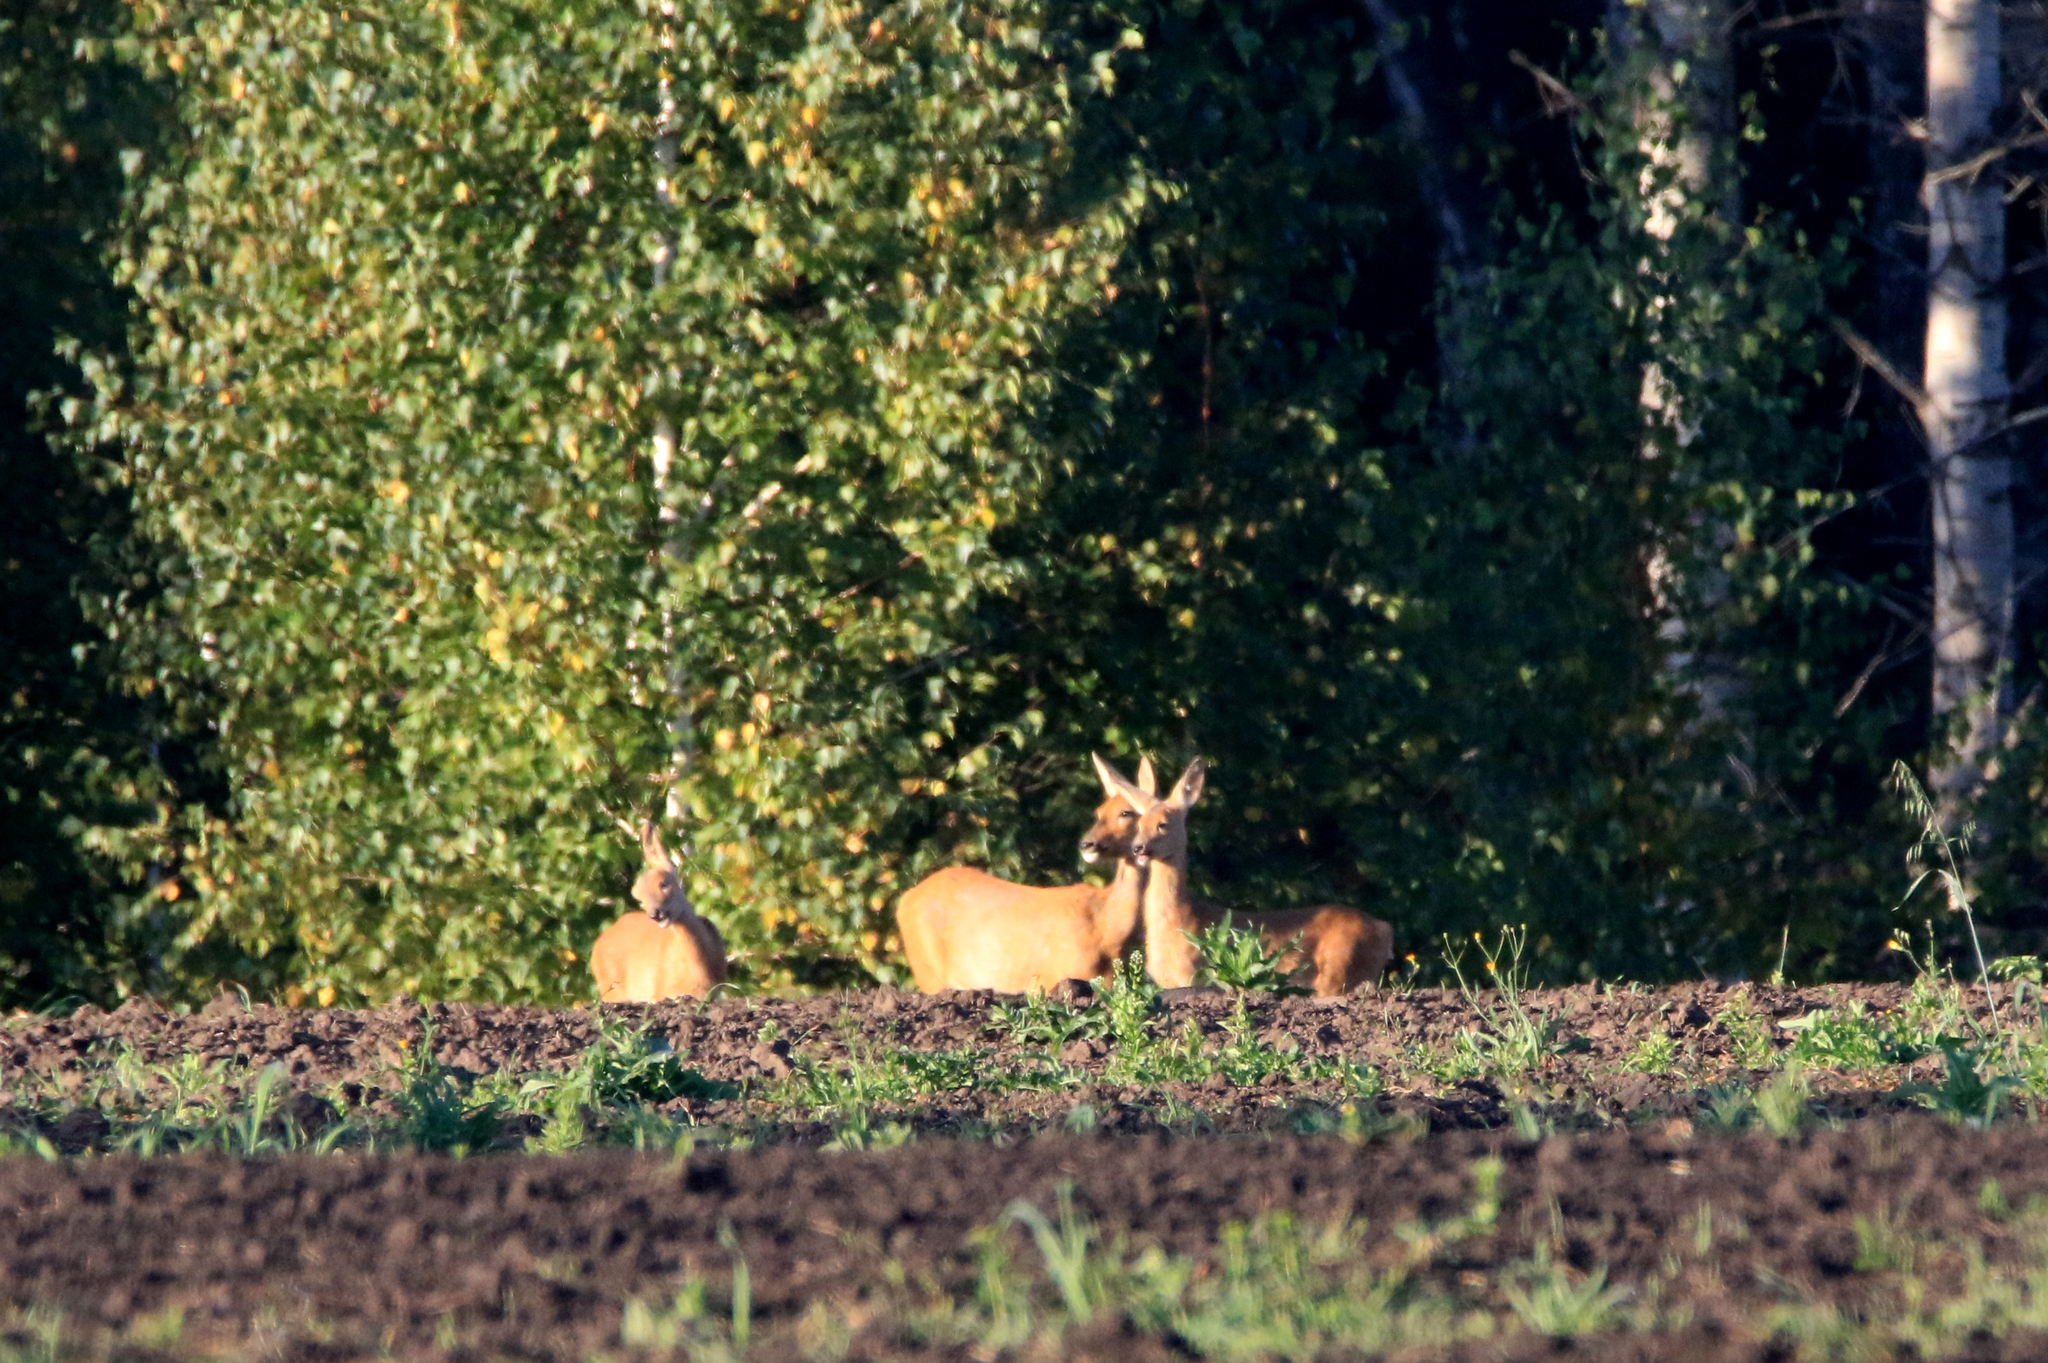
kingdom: Animalia
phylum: Chordata
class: Mammalia
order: Artiodactyla
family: Cervidae
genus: Capreolus
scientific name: Capreolus pygargus
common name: Siberian roe
